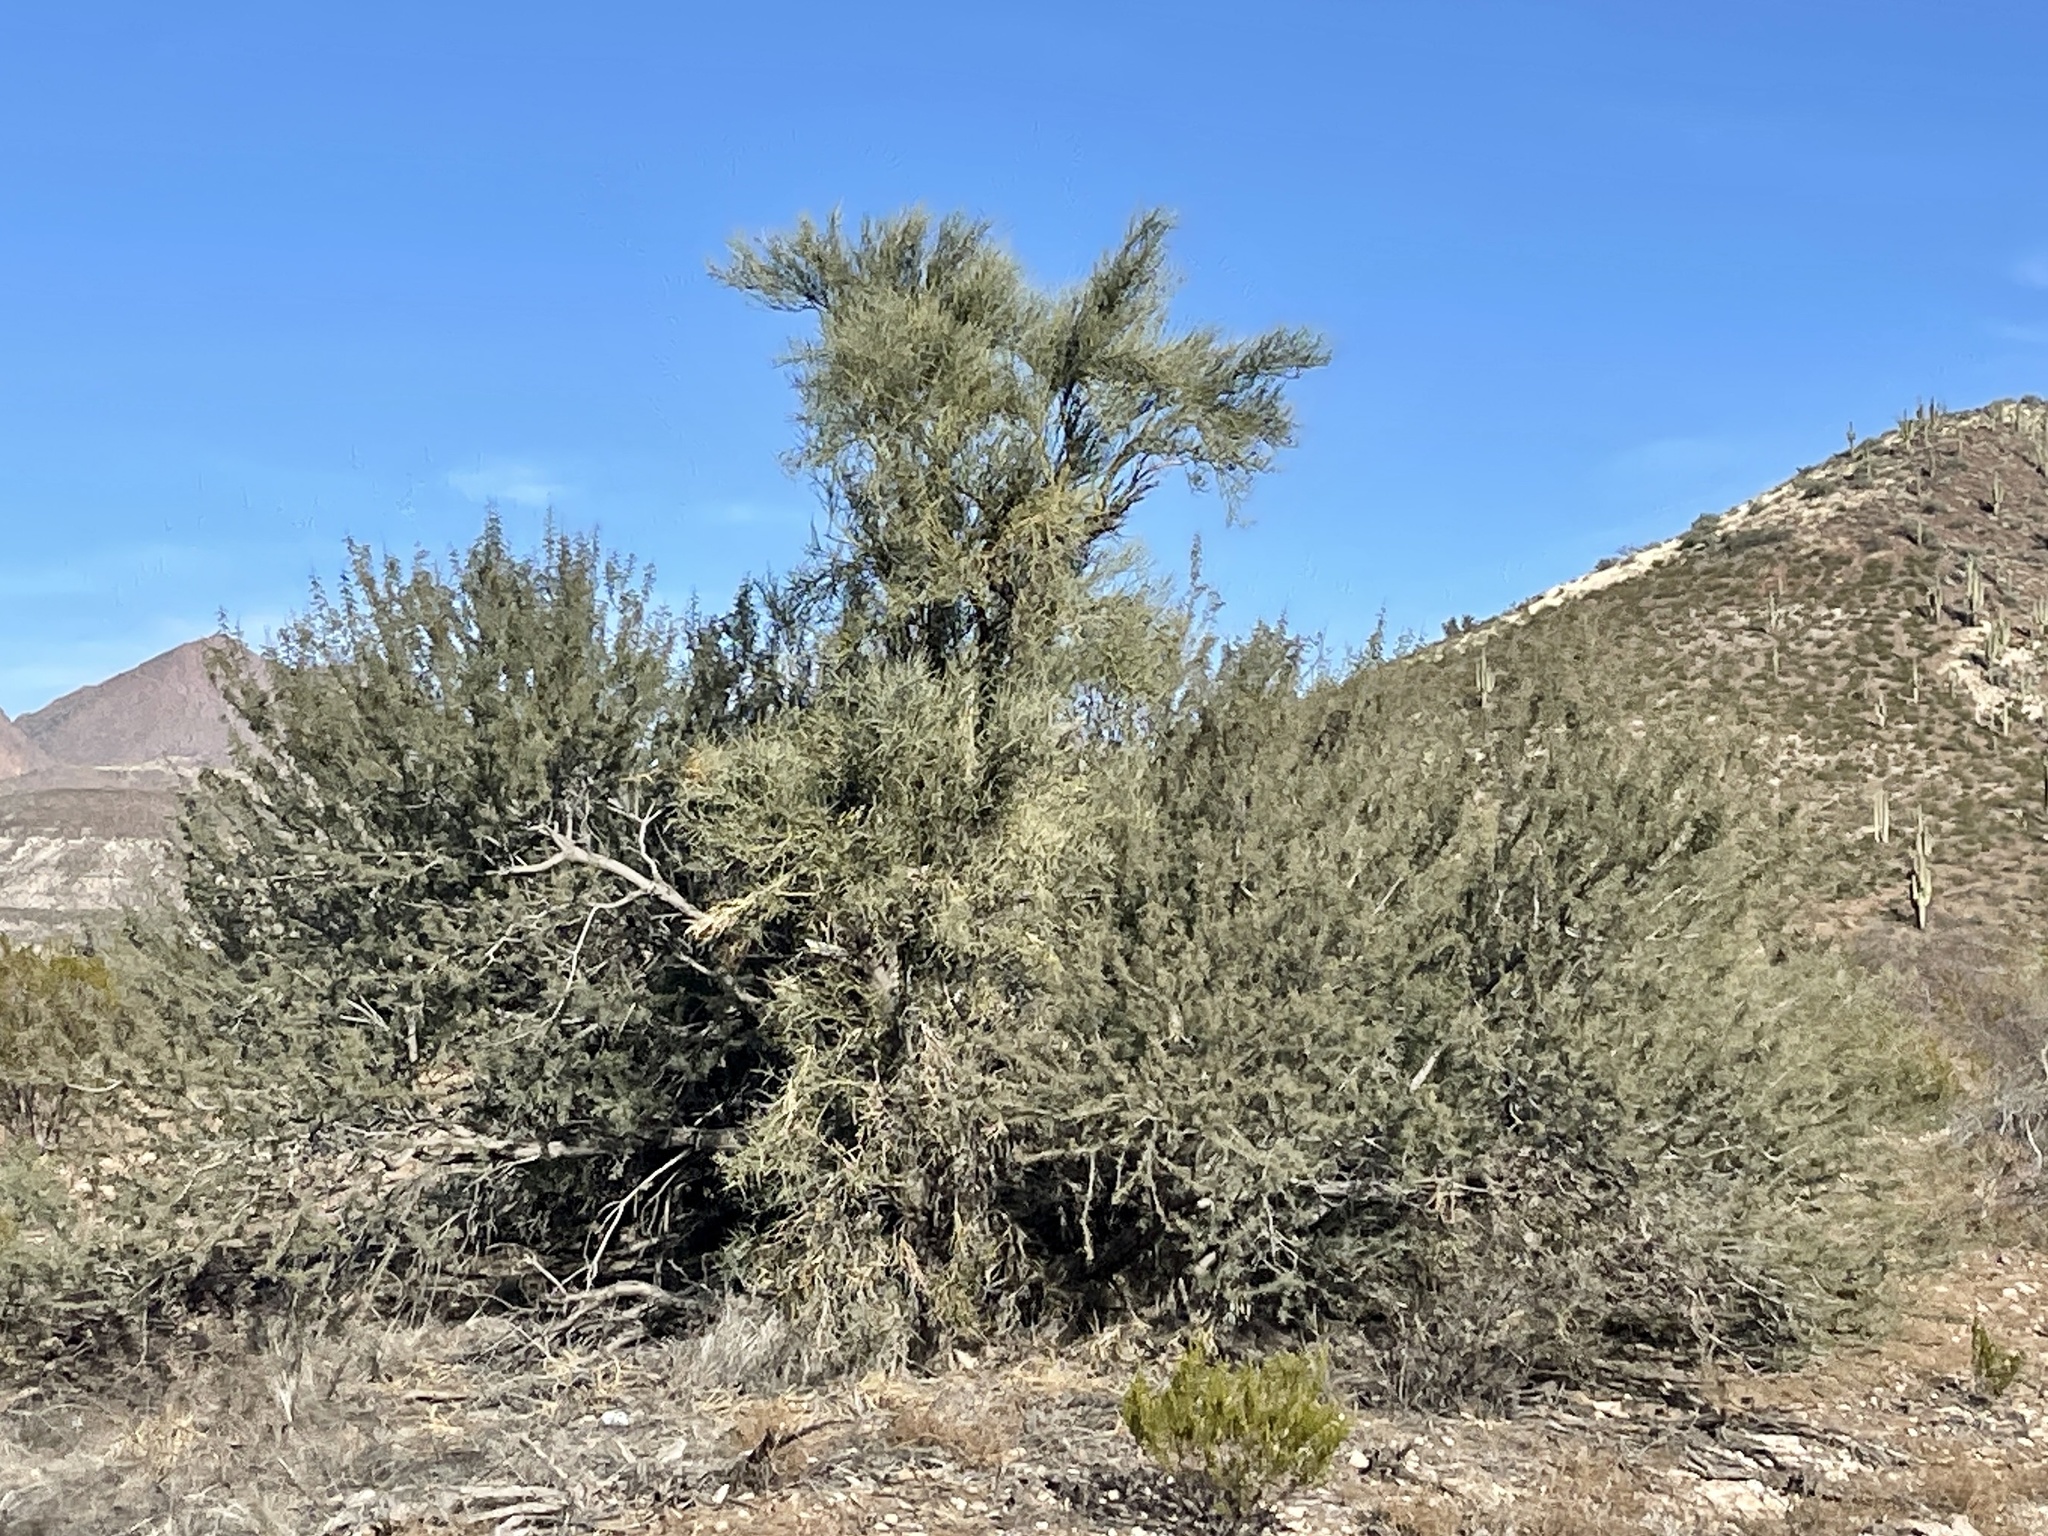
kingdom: Plantae
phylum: Tracheophyta
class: Magnoliopsida
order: Celastrales
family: Celastraceae
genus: Canotia
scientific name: Canotia holacantha
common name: Crucifixion thorns
